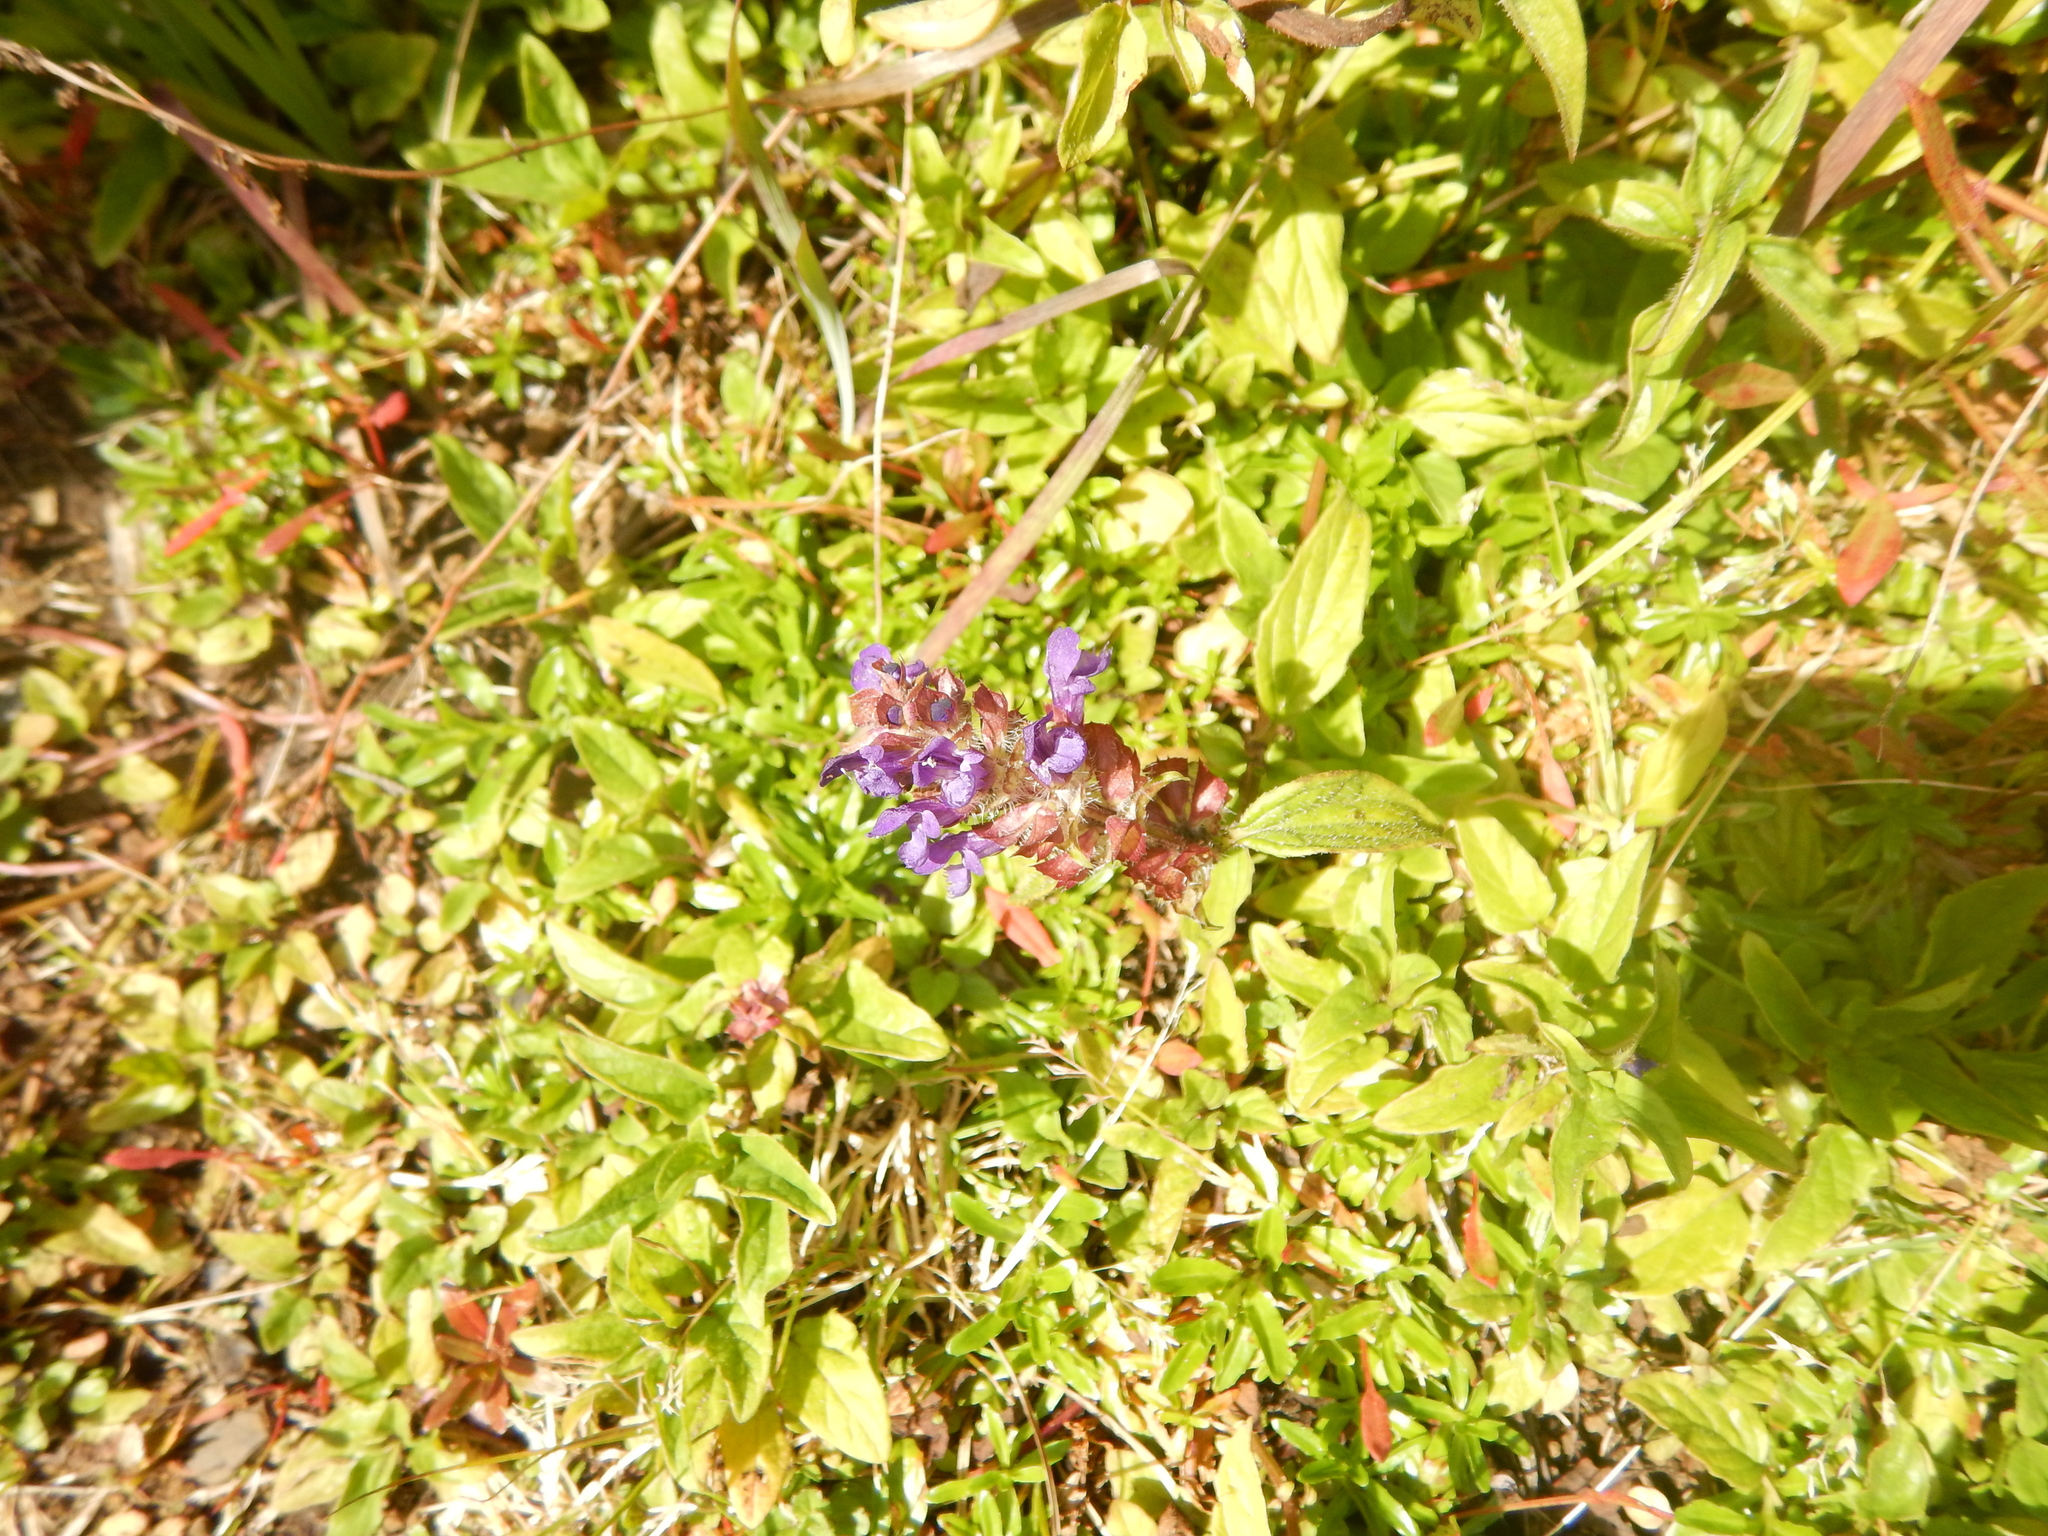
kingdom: Plantae
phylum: Tracheophyta
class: Magnoliopsida
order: Lamiales
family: Lamiaceae
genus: Prunella
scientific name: Prunella vulgaris
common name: Heal-all
